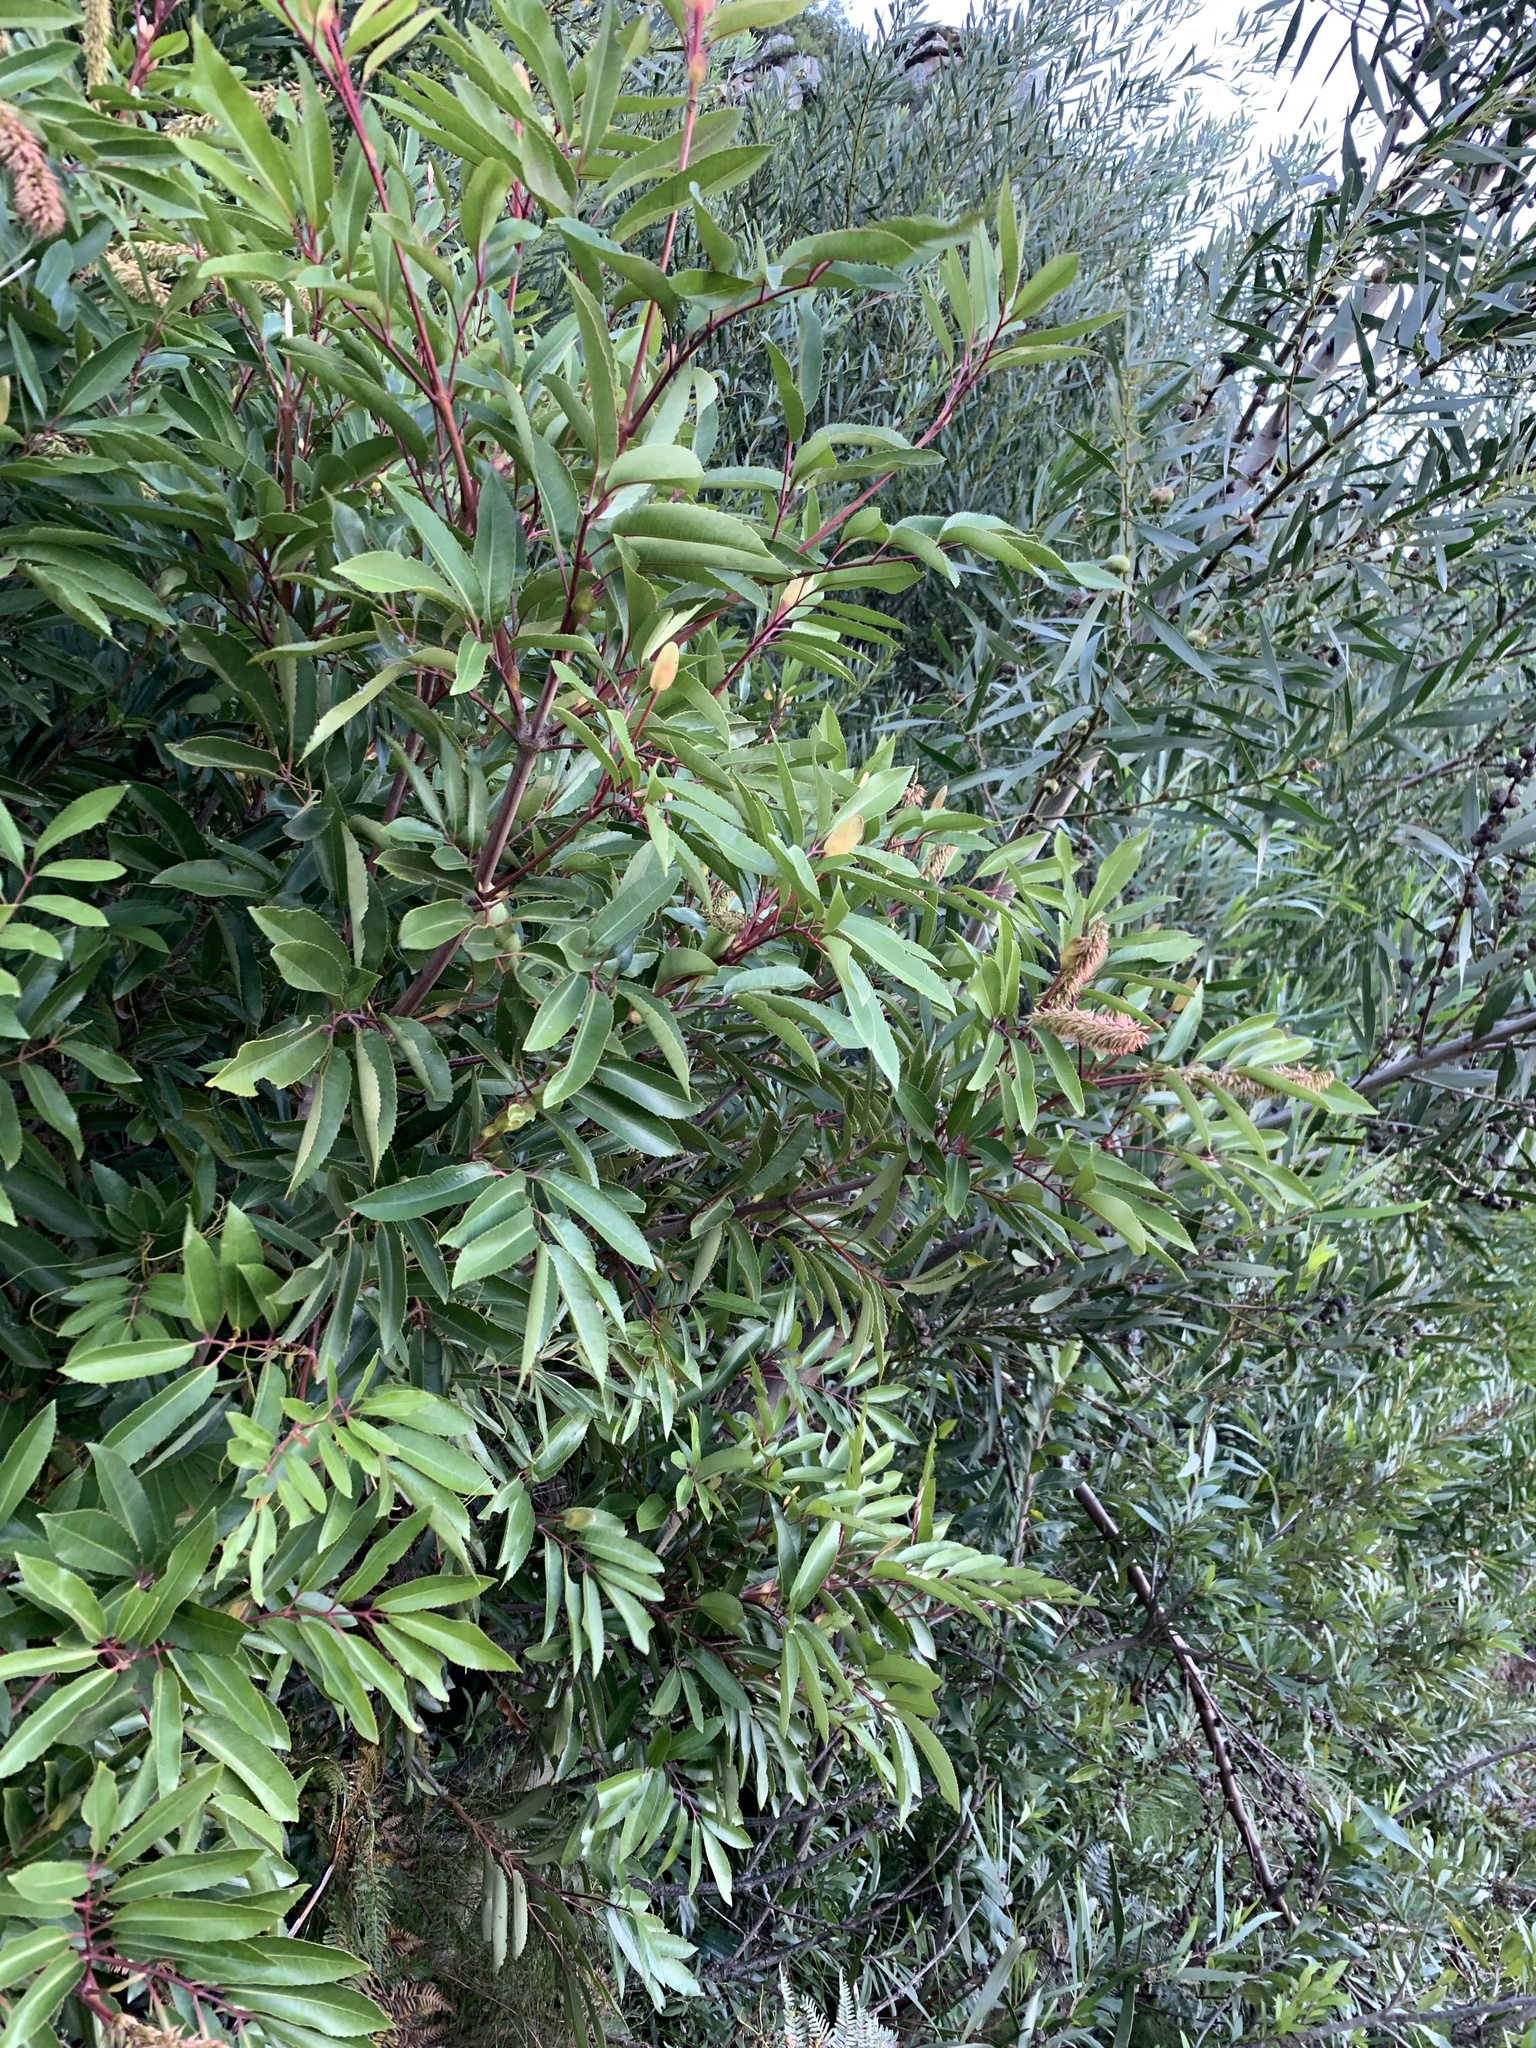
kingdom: Plantae
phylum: Tracheophyta
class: Magnoliopsida
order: Oxalidales
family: Cunoniaceae
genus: Cunonia
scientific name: Cunonia capensis
